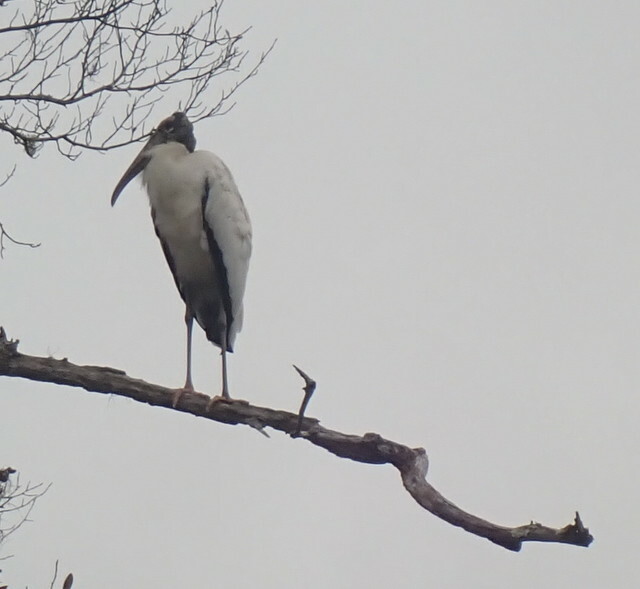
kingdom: Animalia
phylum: Chordata
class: Aves
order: Ciconiiformes
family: Ciconiidae
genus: Mycteria
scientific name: Mycteria americana
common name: Wood stork
